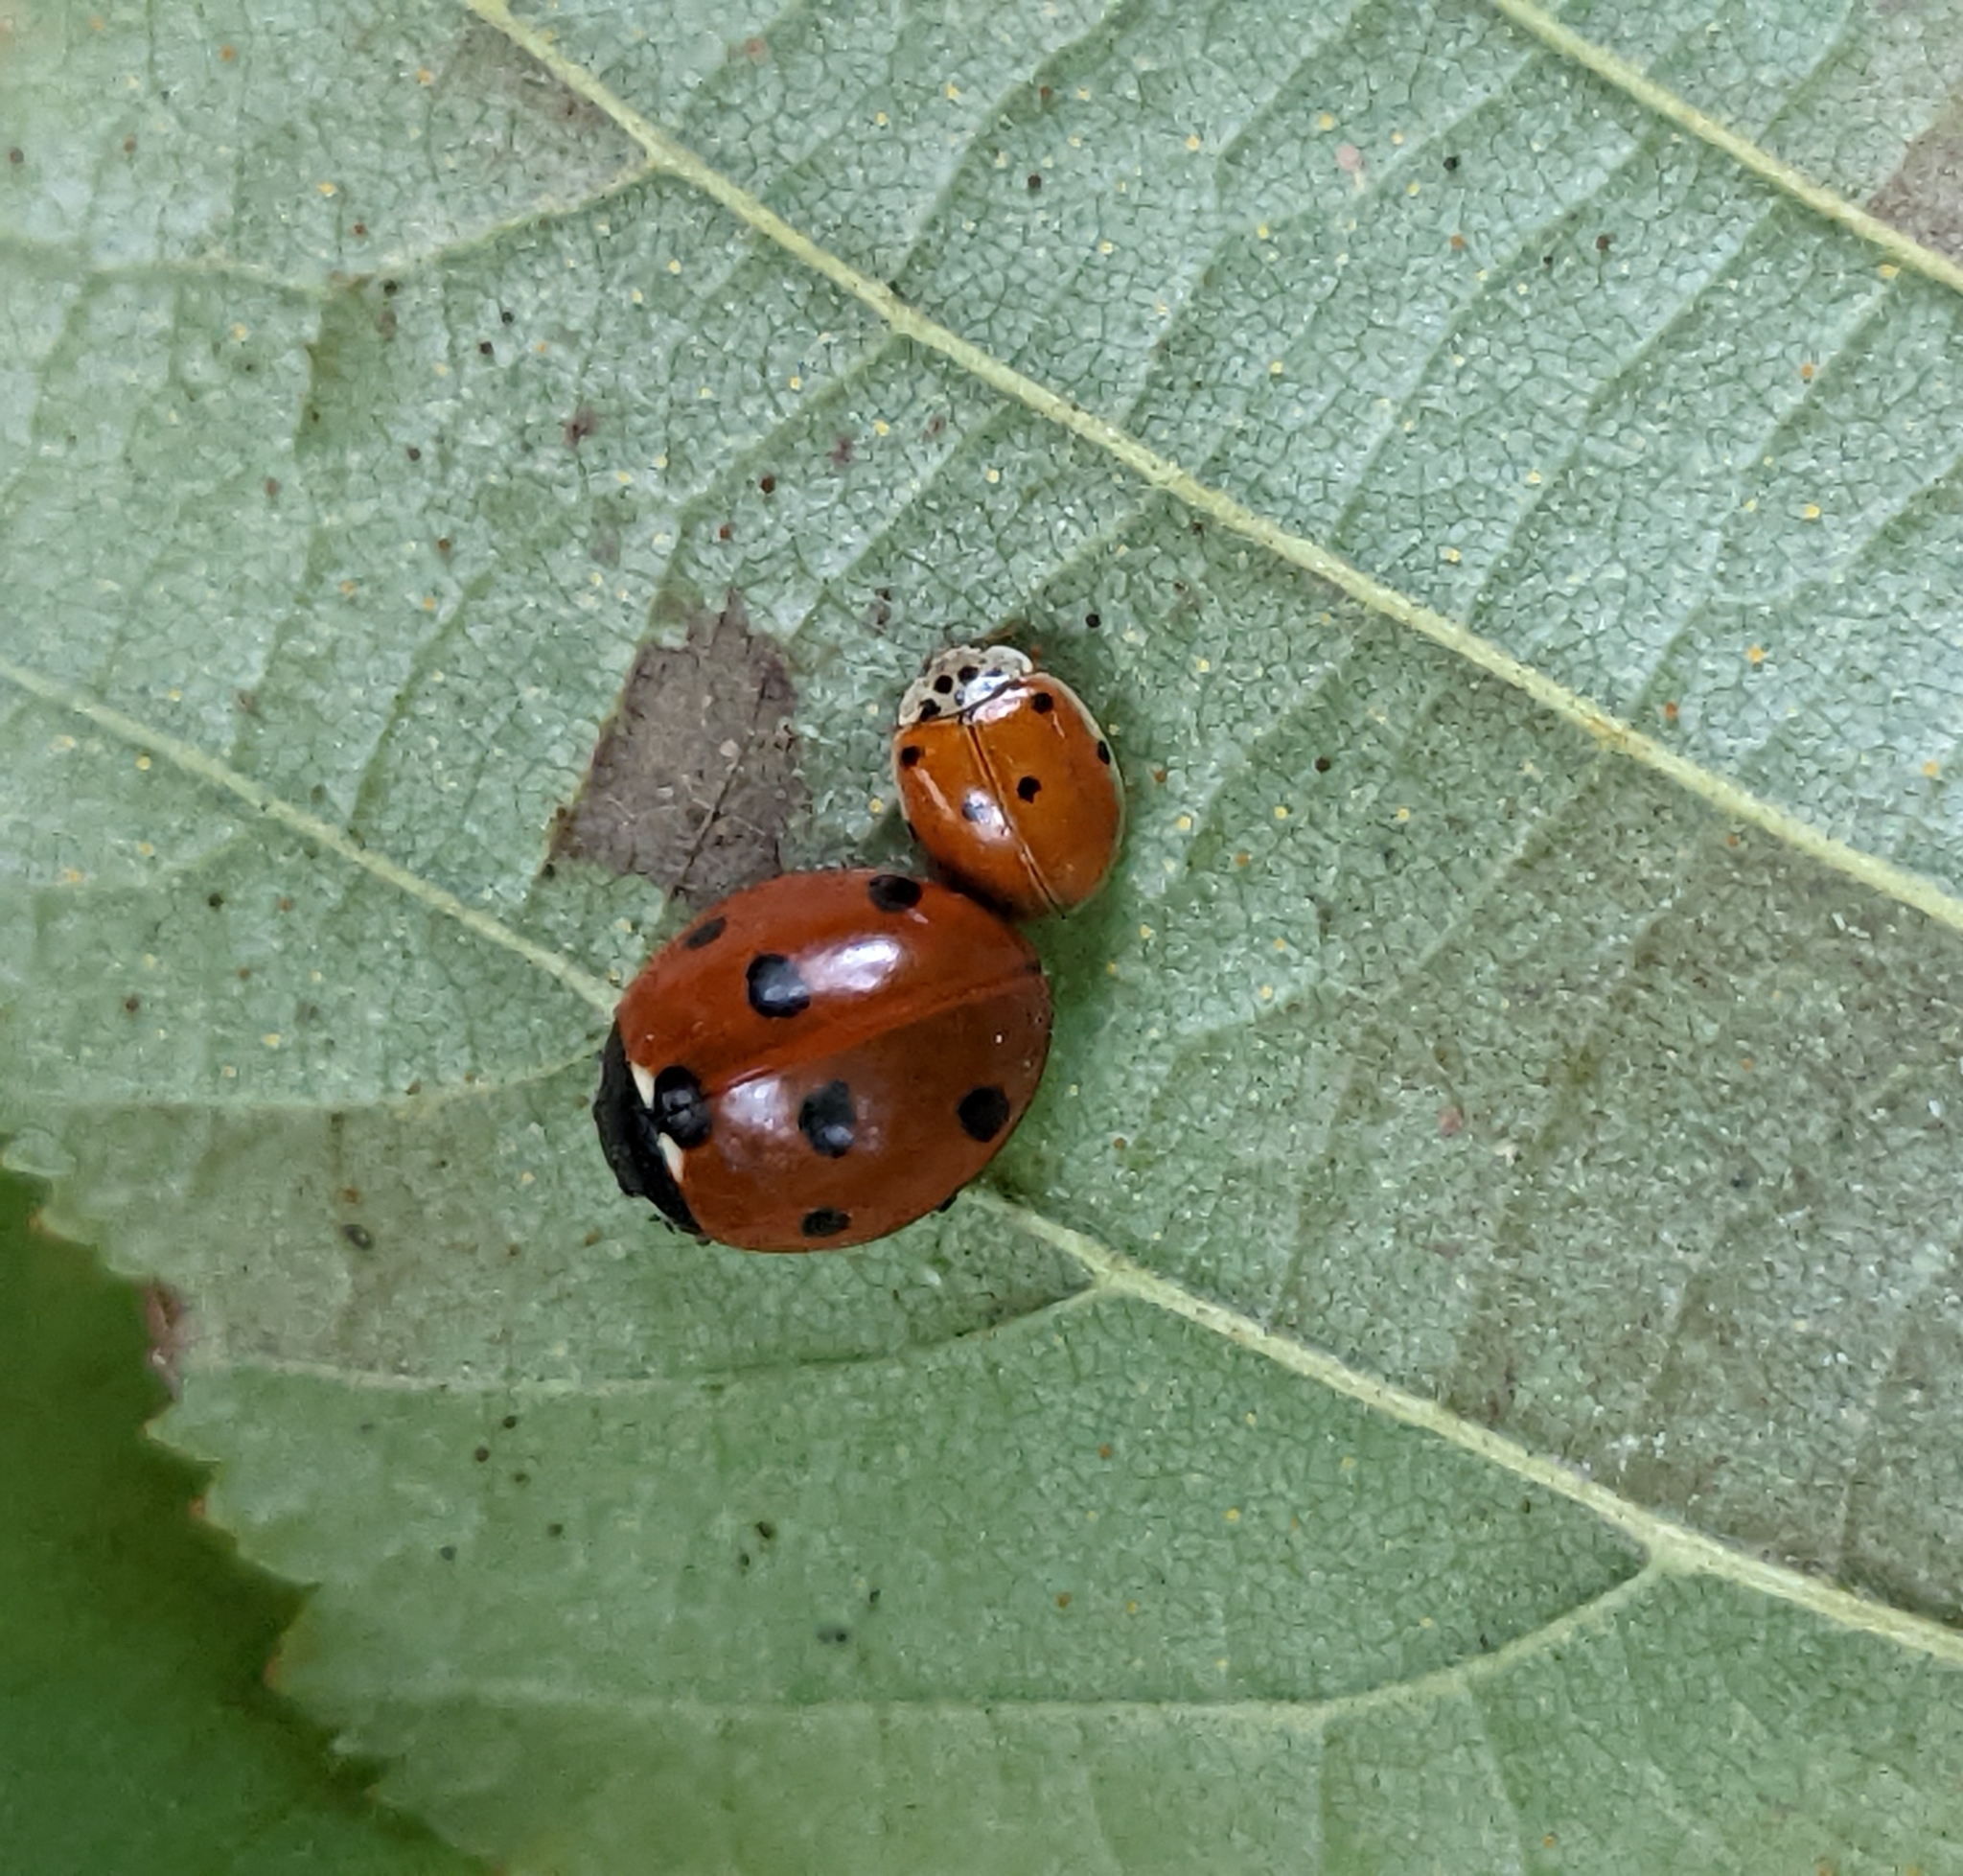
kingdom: Animalia
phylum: Arthropoda
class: Insecta
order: Coleoptera
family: Coccinellidae
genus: Adalia
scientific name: Adalia decempunctata
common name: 10-spot ladybird
